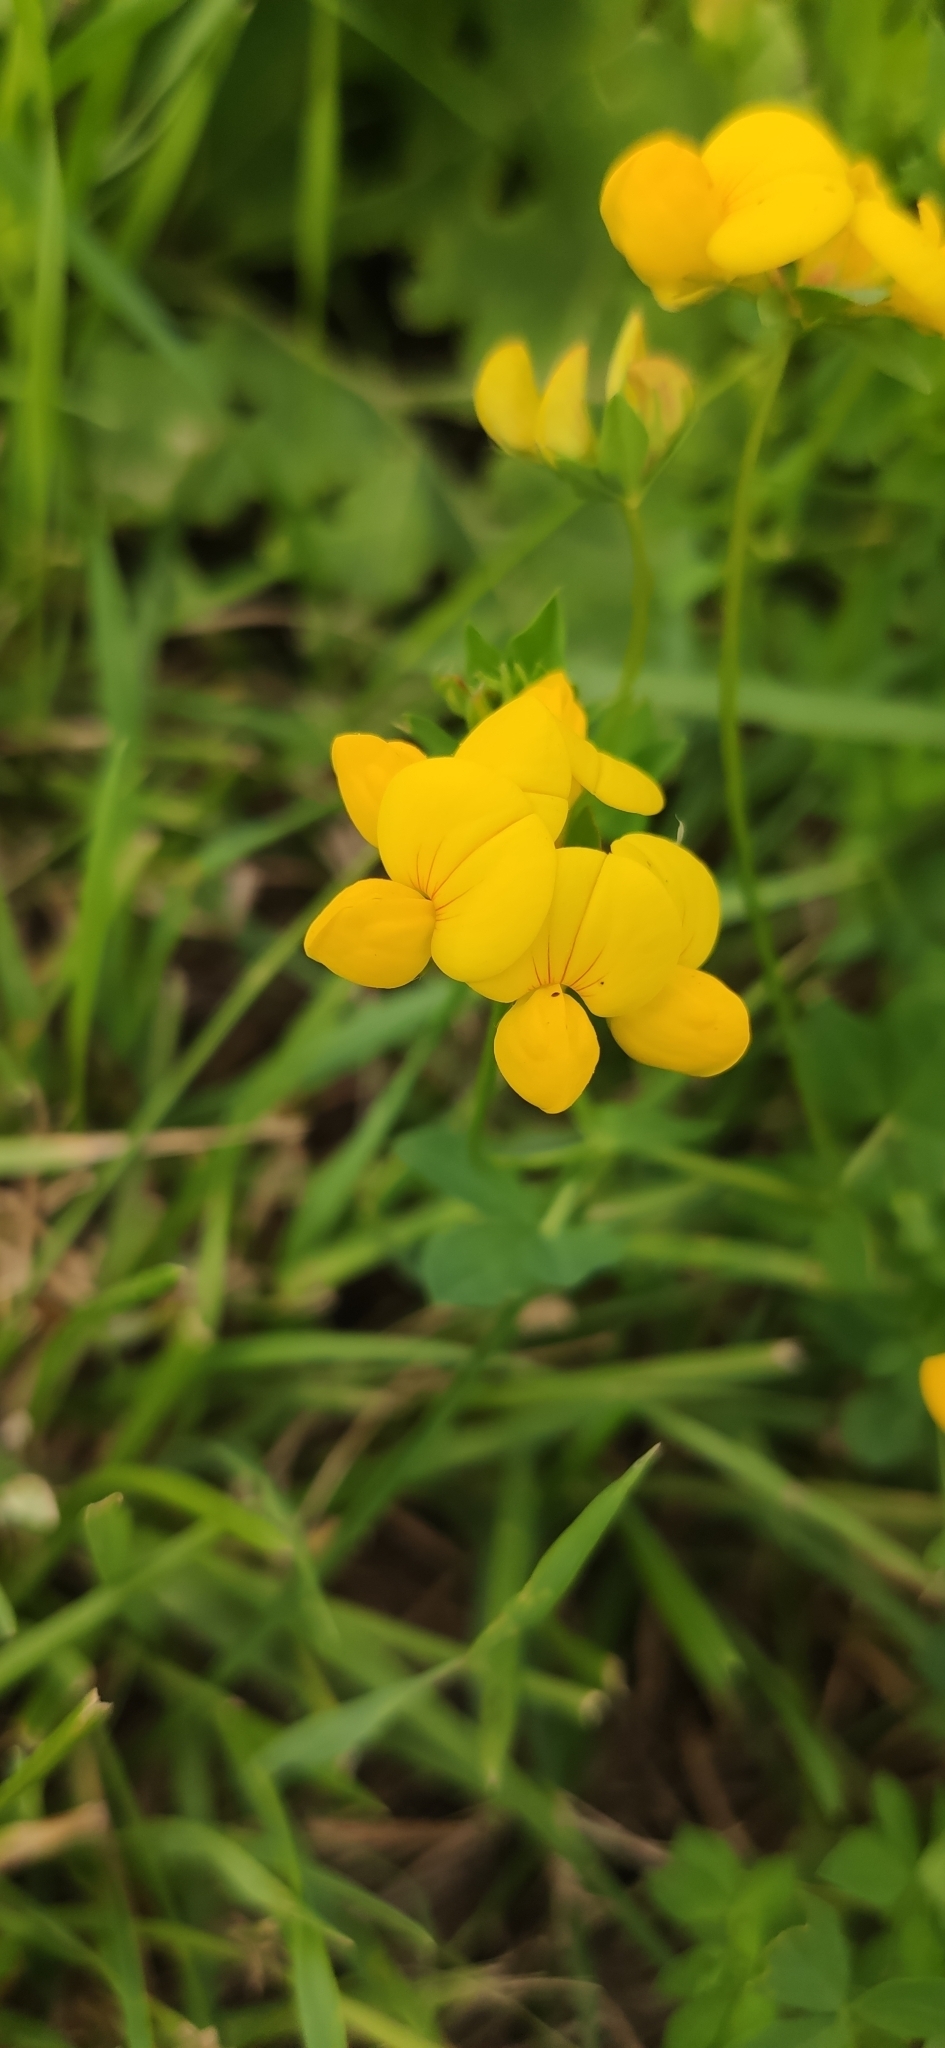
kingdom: Plantae
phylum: Tracheophyta
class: Magnoliopsida
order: Fabales
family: Fabaceae
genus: Lotus
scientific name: Lotus corniculatus
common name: Common bird's-foot-trefoil
